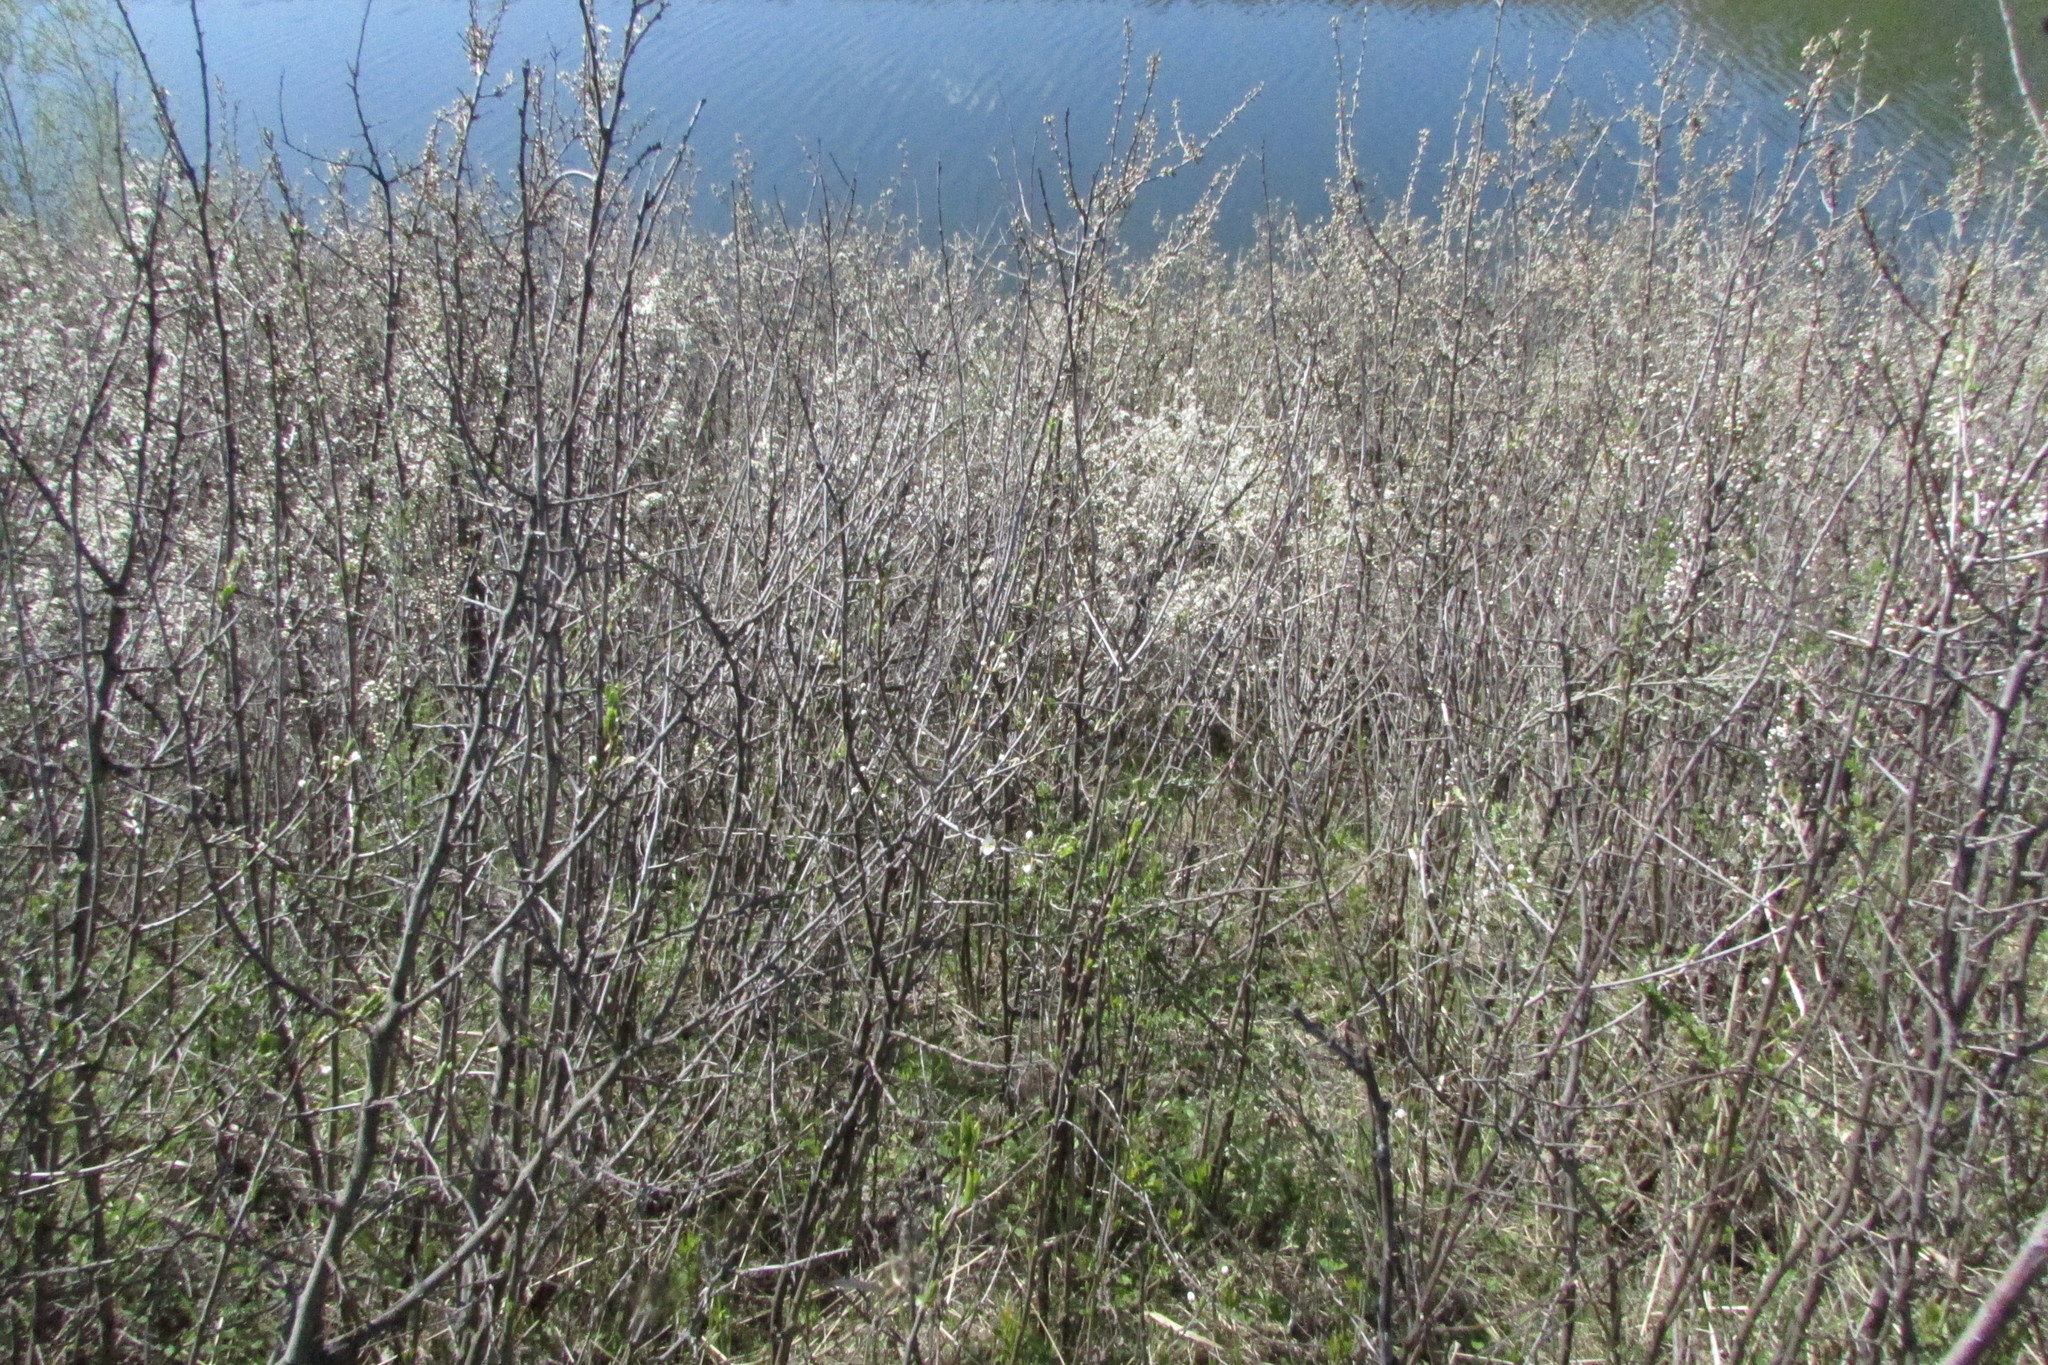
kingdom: Plantae
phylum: Tracheophyta
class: Magnoliopsida
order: Rosales
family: Rosaceae
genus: Prunus
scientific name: Prunus spinosa
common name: Blackthorn
